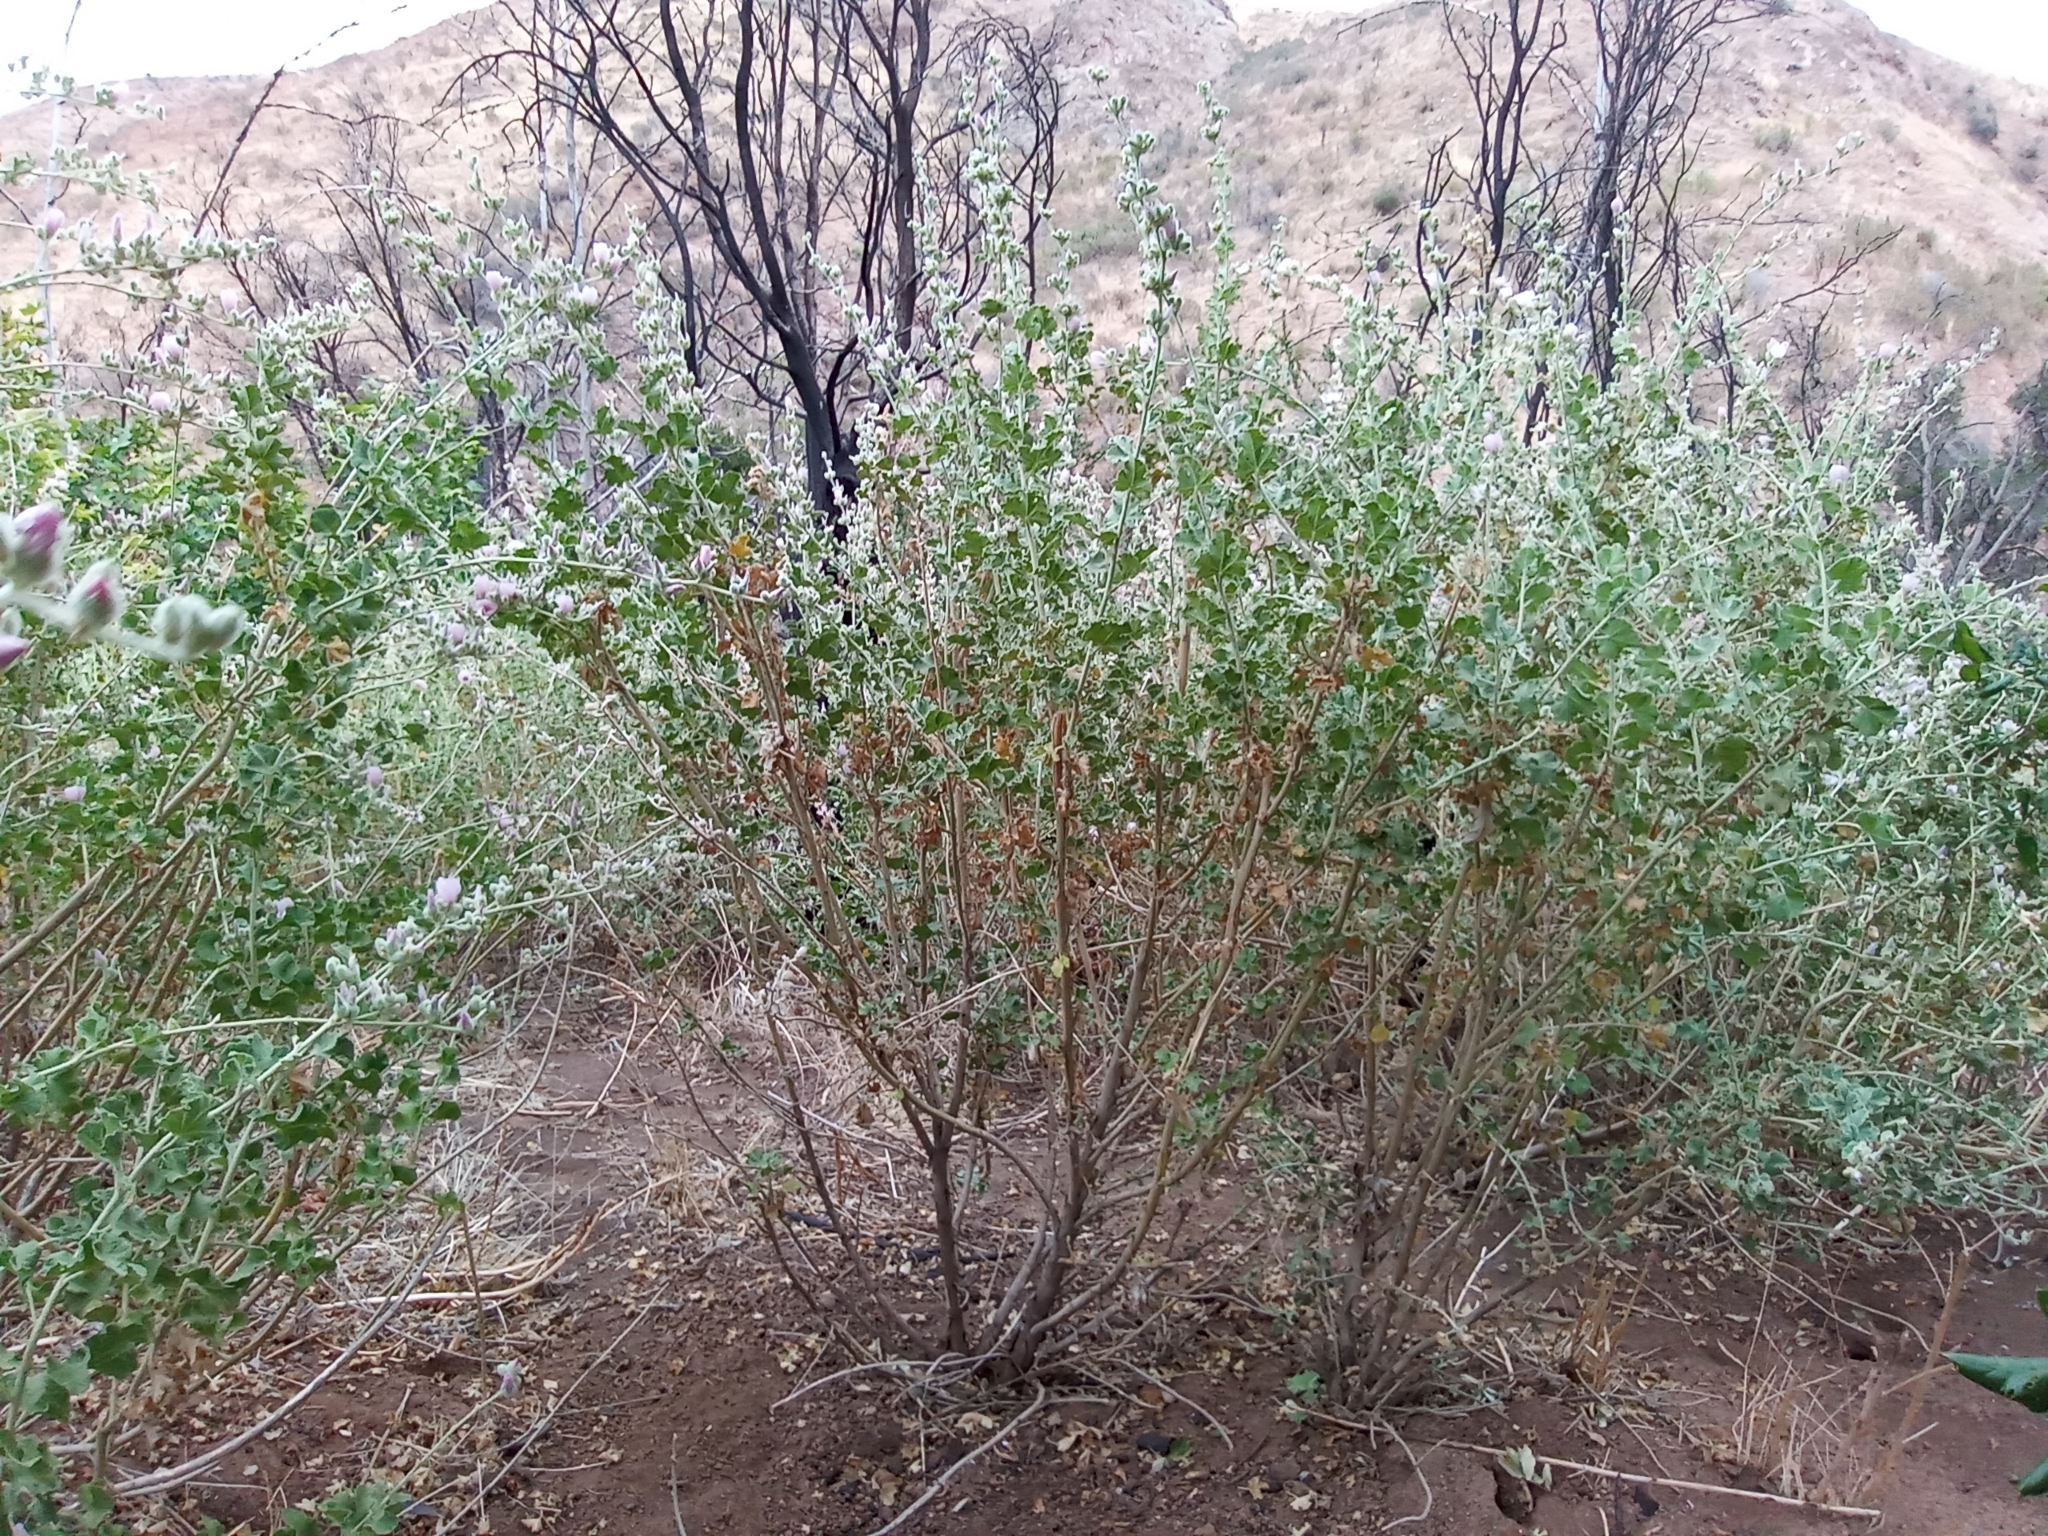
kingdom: Plantae
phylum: Tracheophyta
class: Magnoliopsida
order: Malvales
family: Malvaceae
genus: Malacothamnus
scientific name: Malacothamnus fremontii
